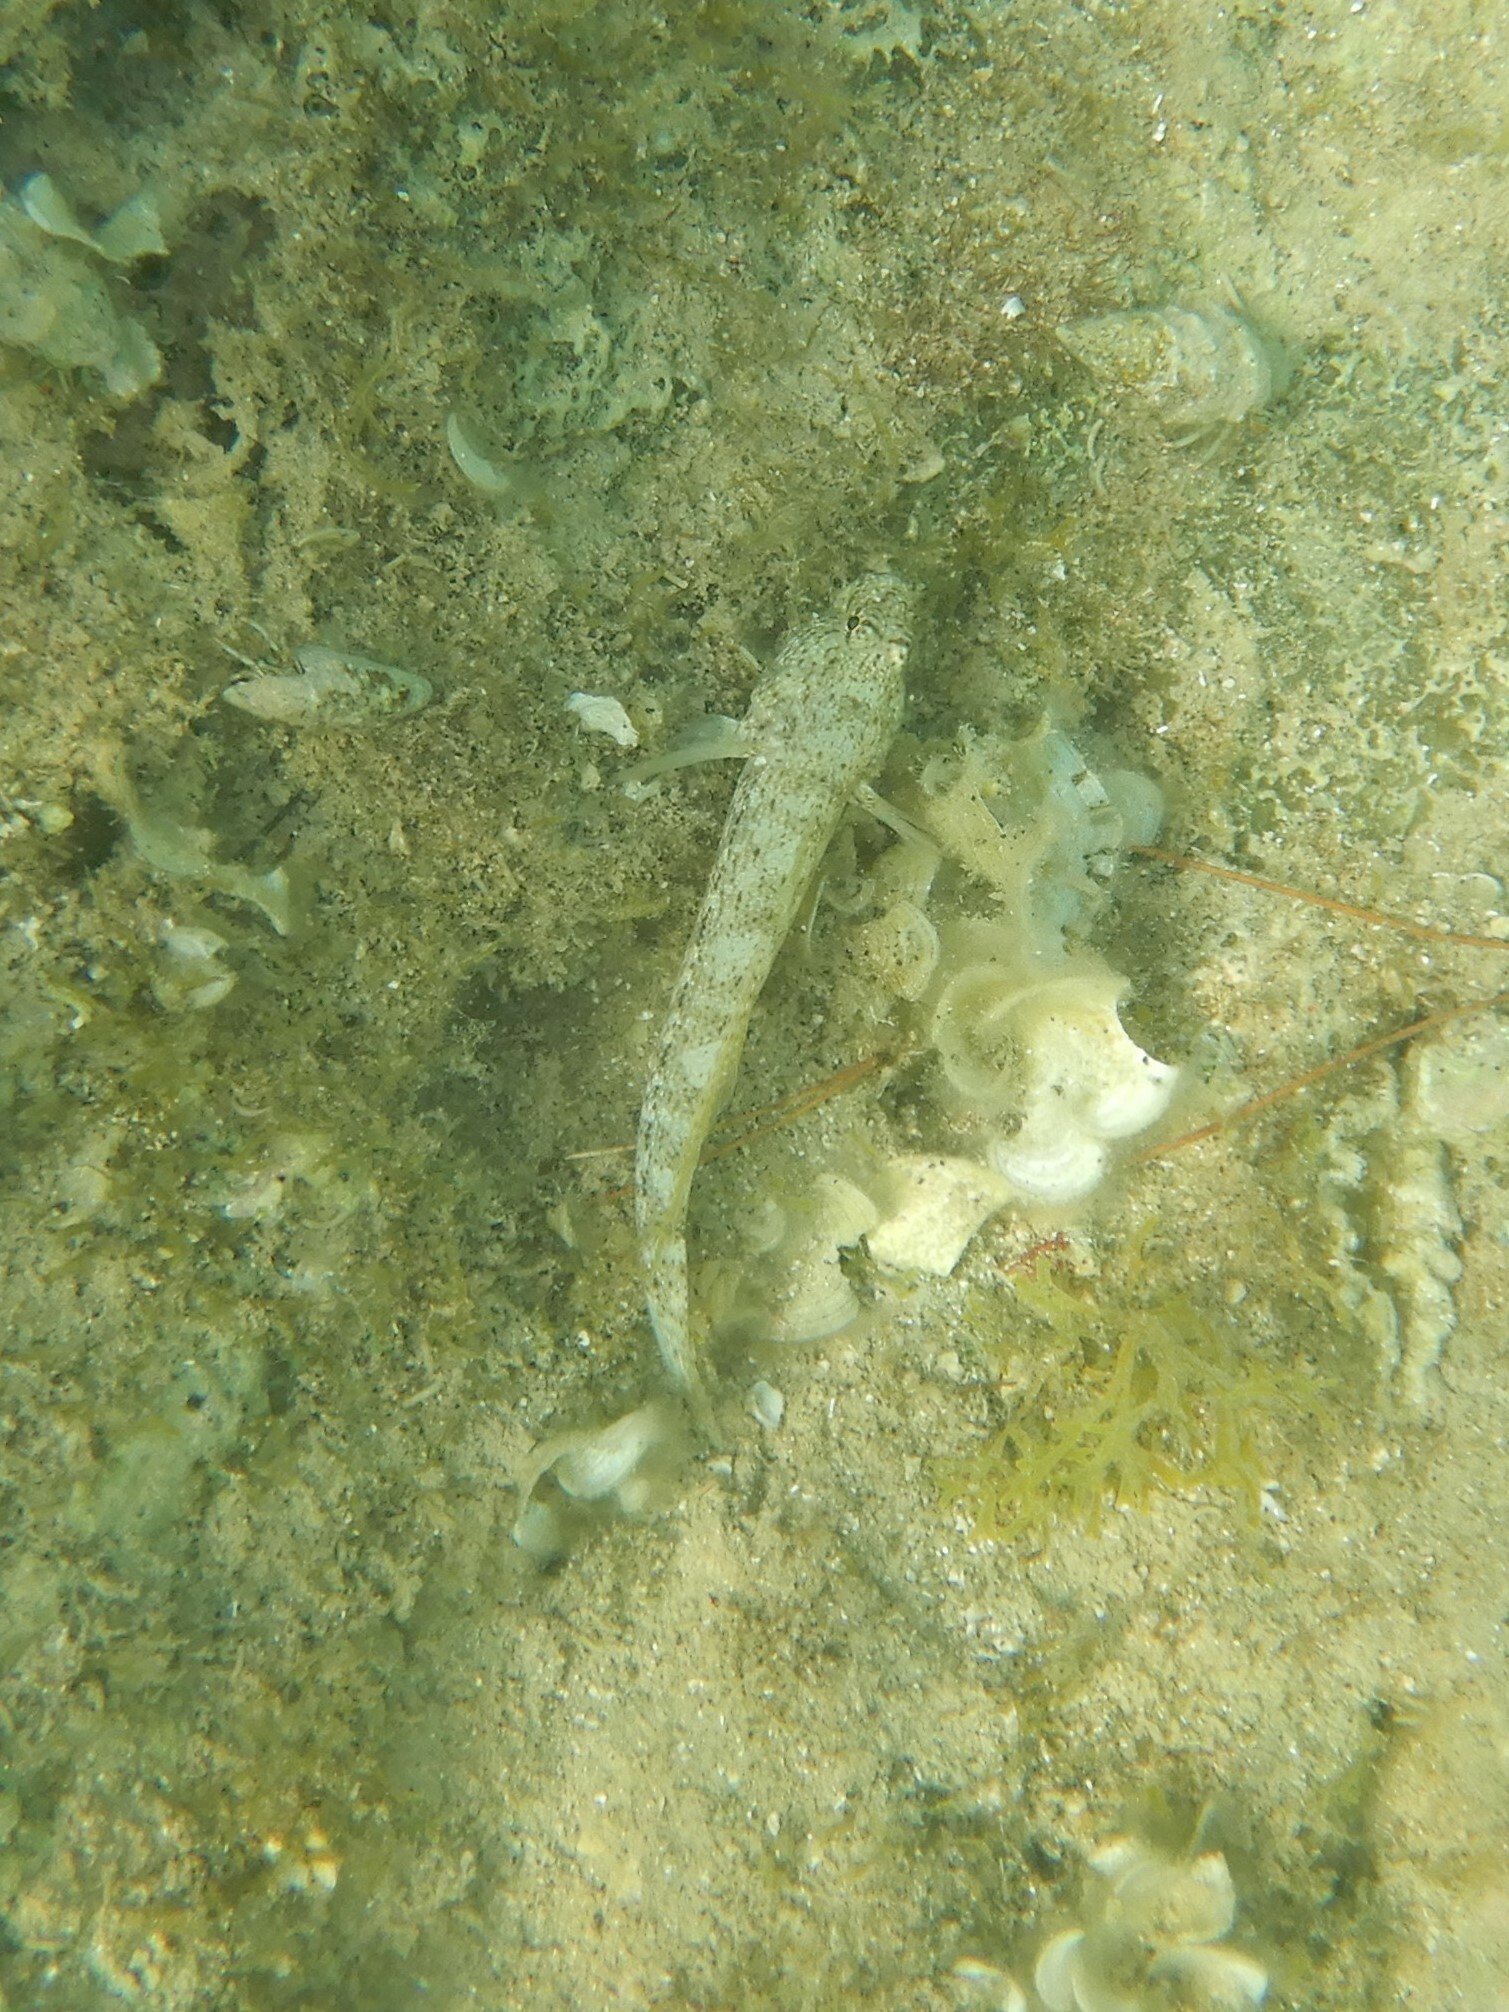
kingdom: Animalia
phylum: Chordata
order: Perciformes
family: Gobiidae
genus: Gobius
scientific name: Gobius incognitus
